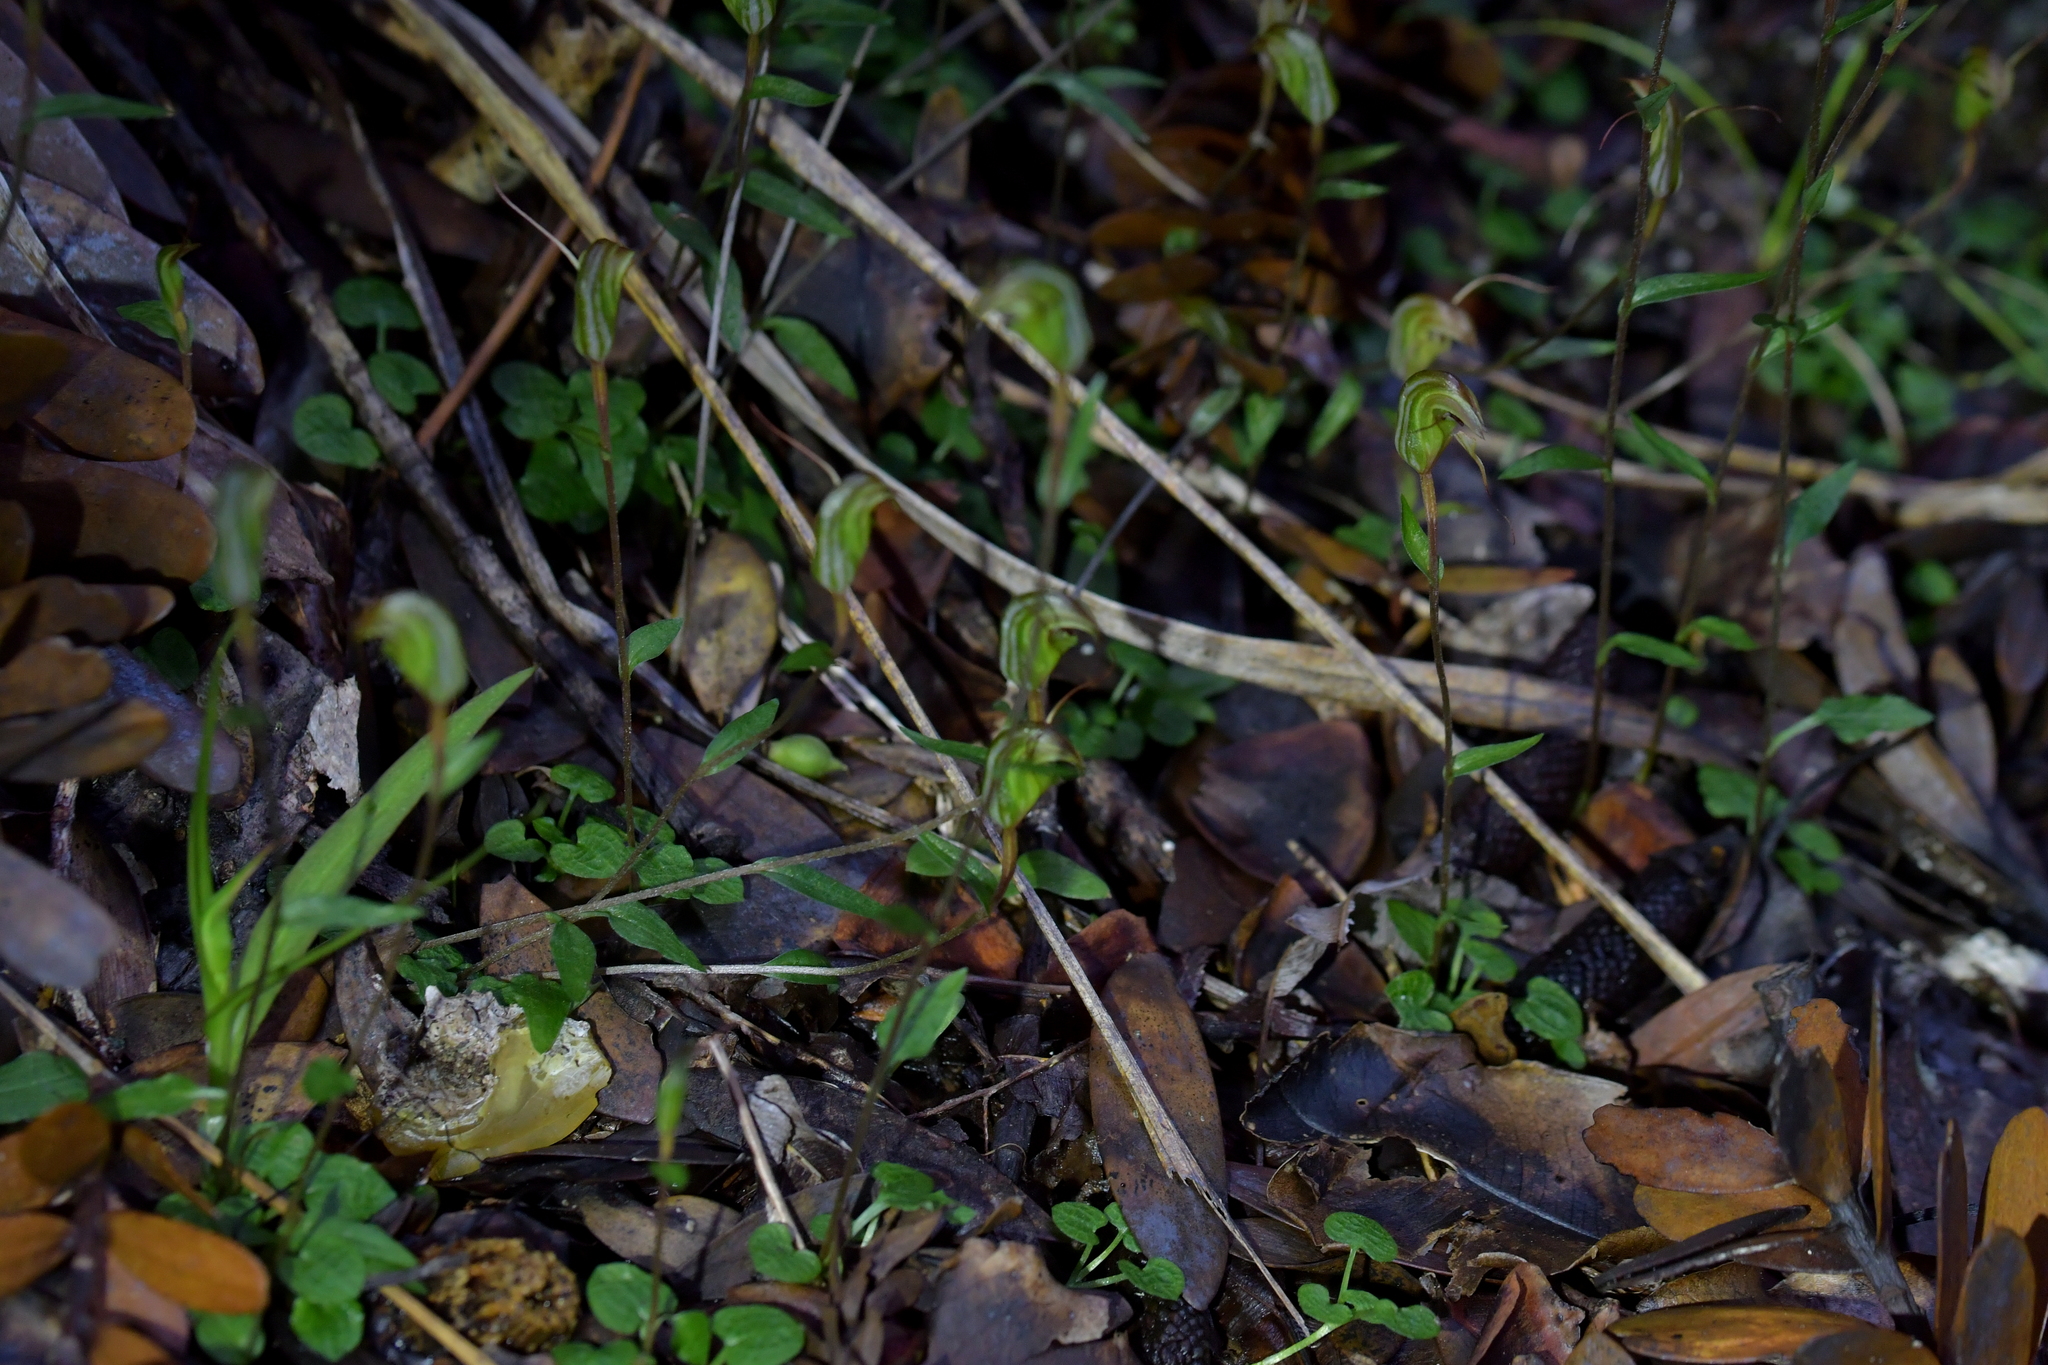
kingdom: Plantae
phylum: Tracheophyta
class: Liliopsida
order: Asparagales
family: Orchidaceae
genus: Pterostylis
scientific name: Pterostylis trullifolia
